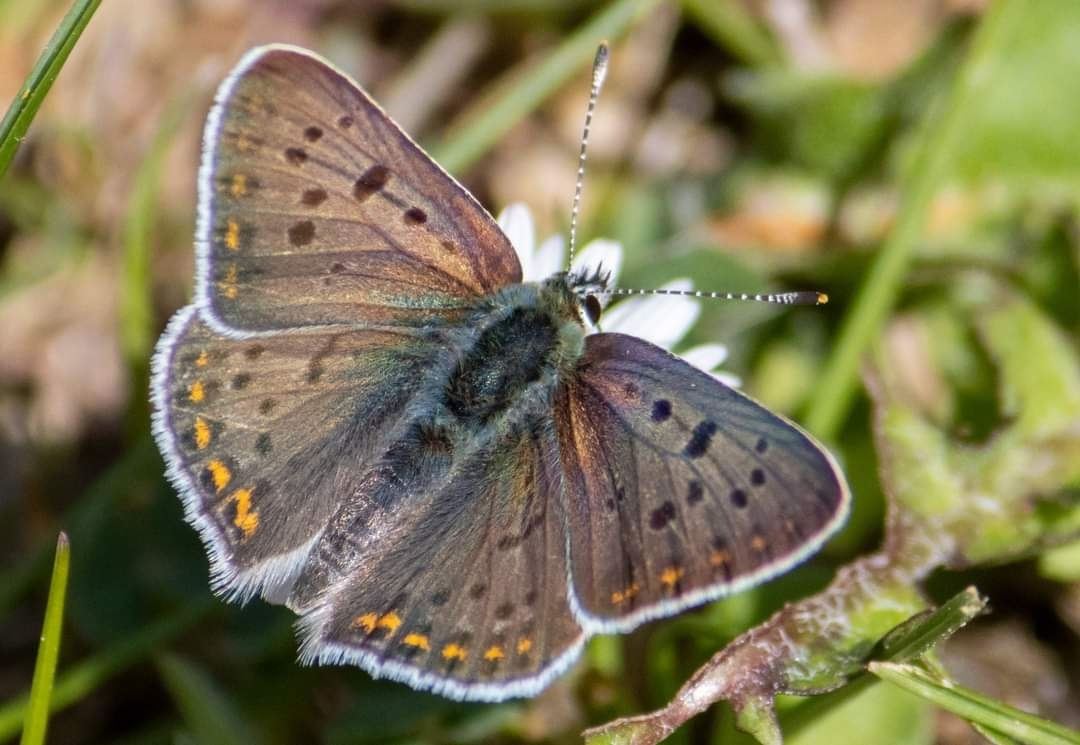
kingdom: Animalia
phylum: Arthropoda
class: Insecta
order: Lepidoptera
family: Lycaenidae
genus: Loweia
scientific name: Loweia tityrus
